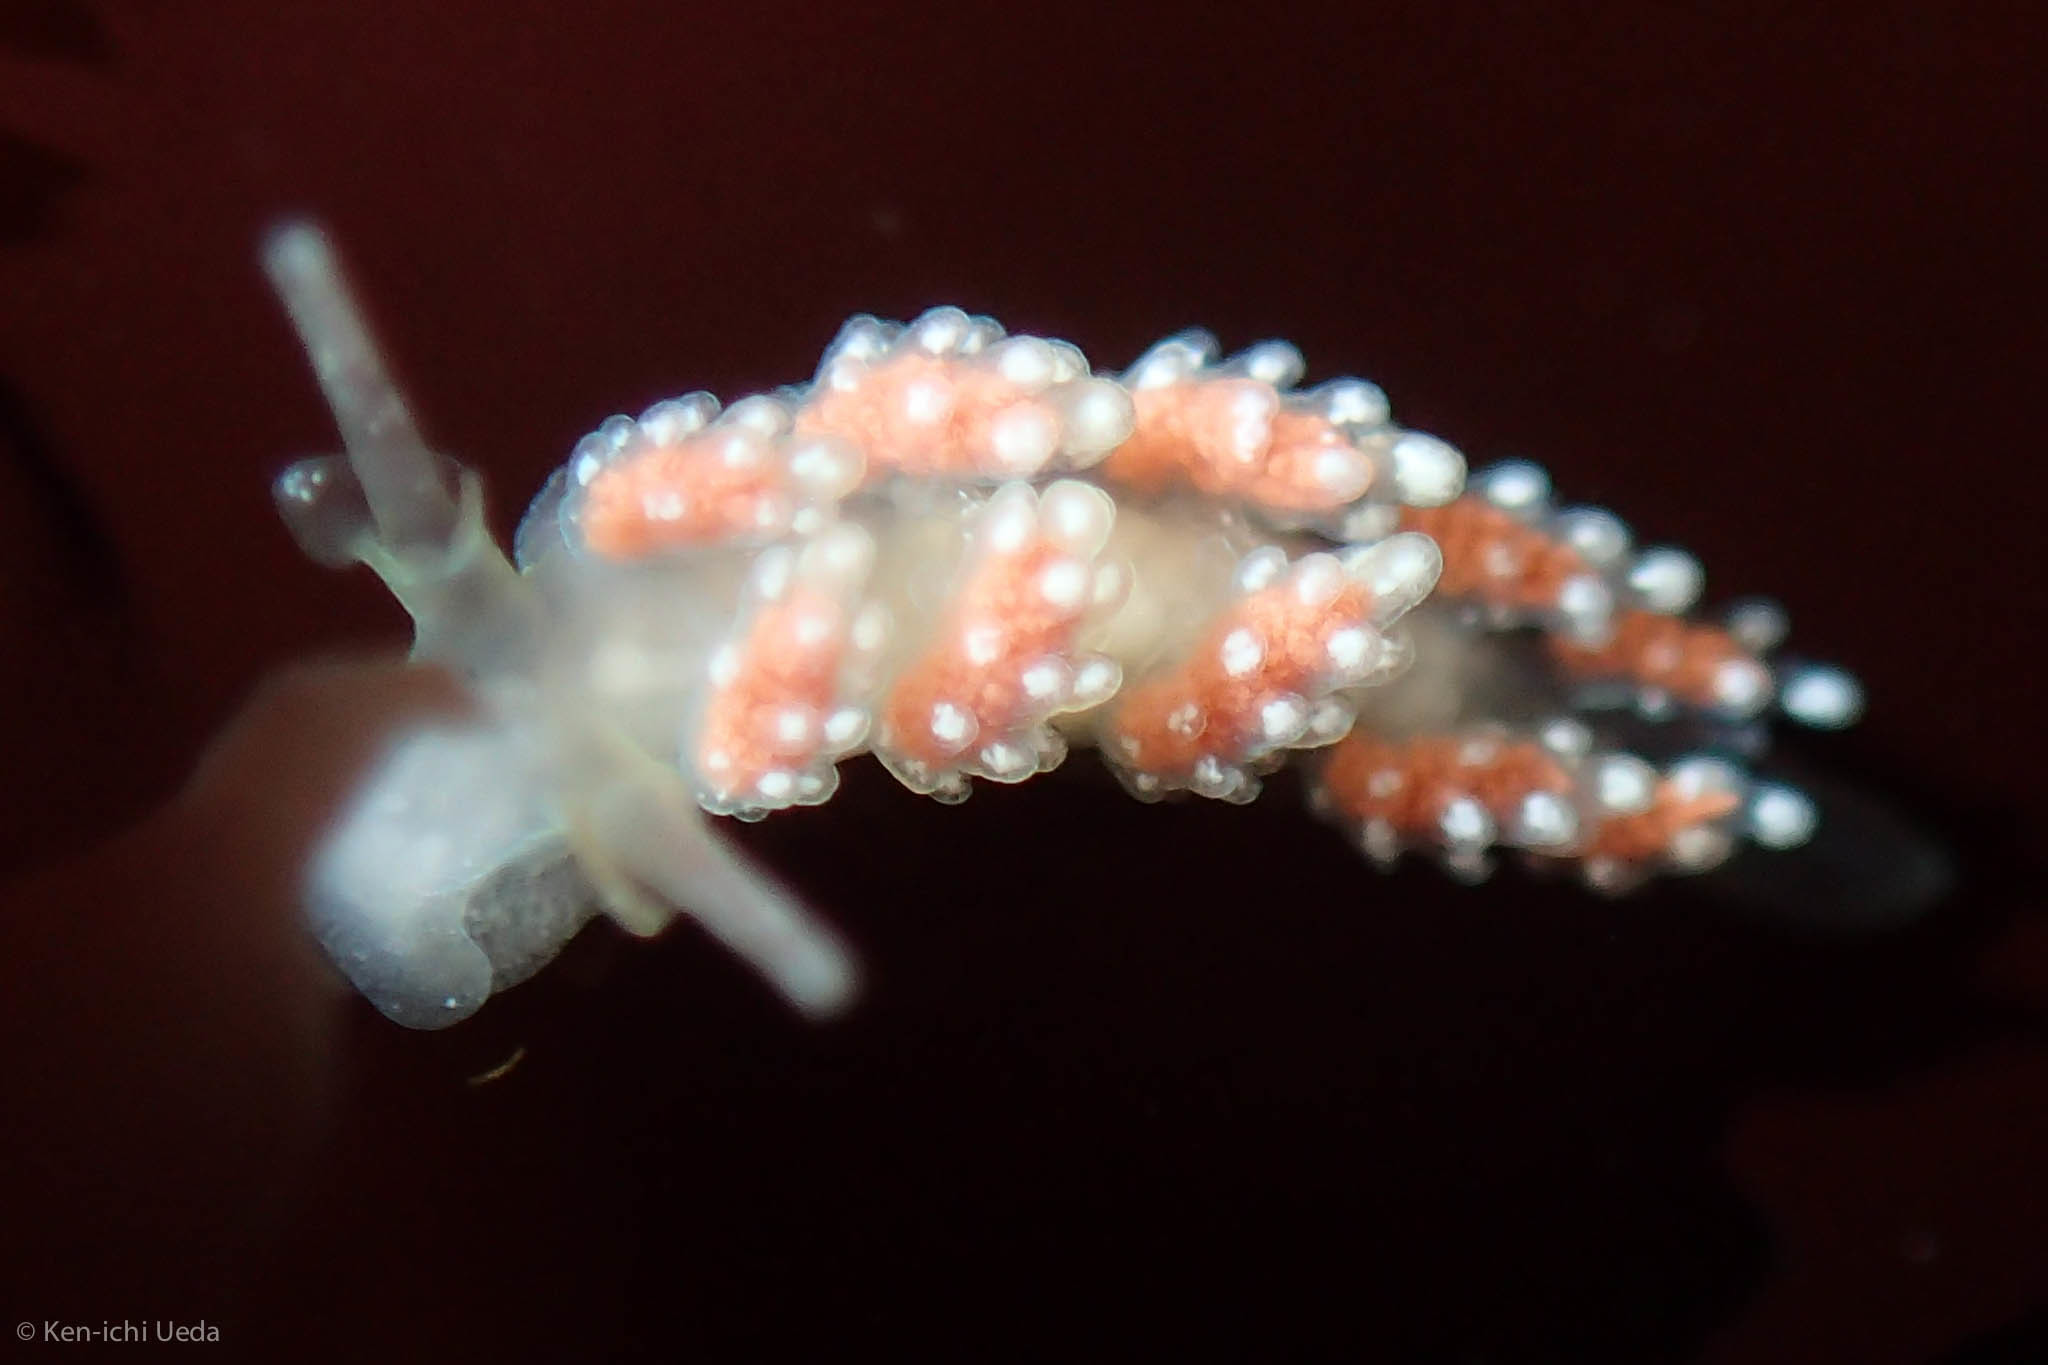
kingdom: Animalia
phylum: Mollusca
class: Gastropoda
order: Nudibranchia
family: Dotidae
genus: Doto
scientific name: Doto amyra
